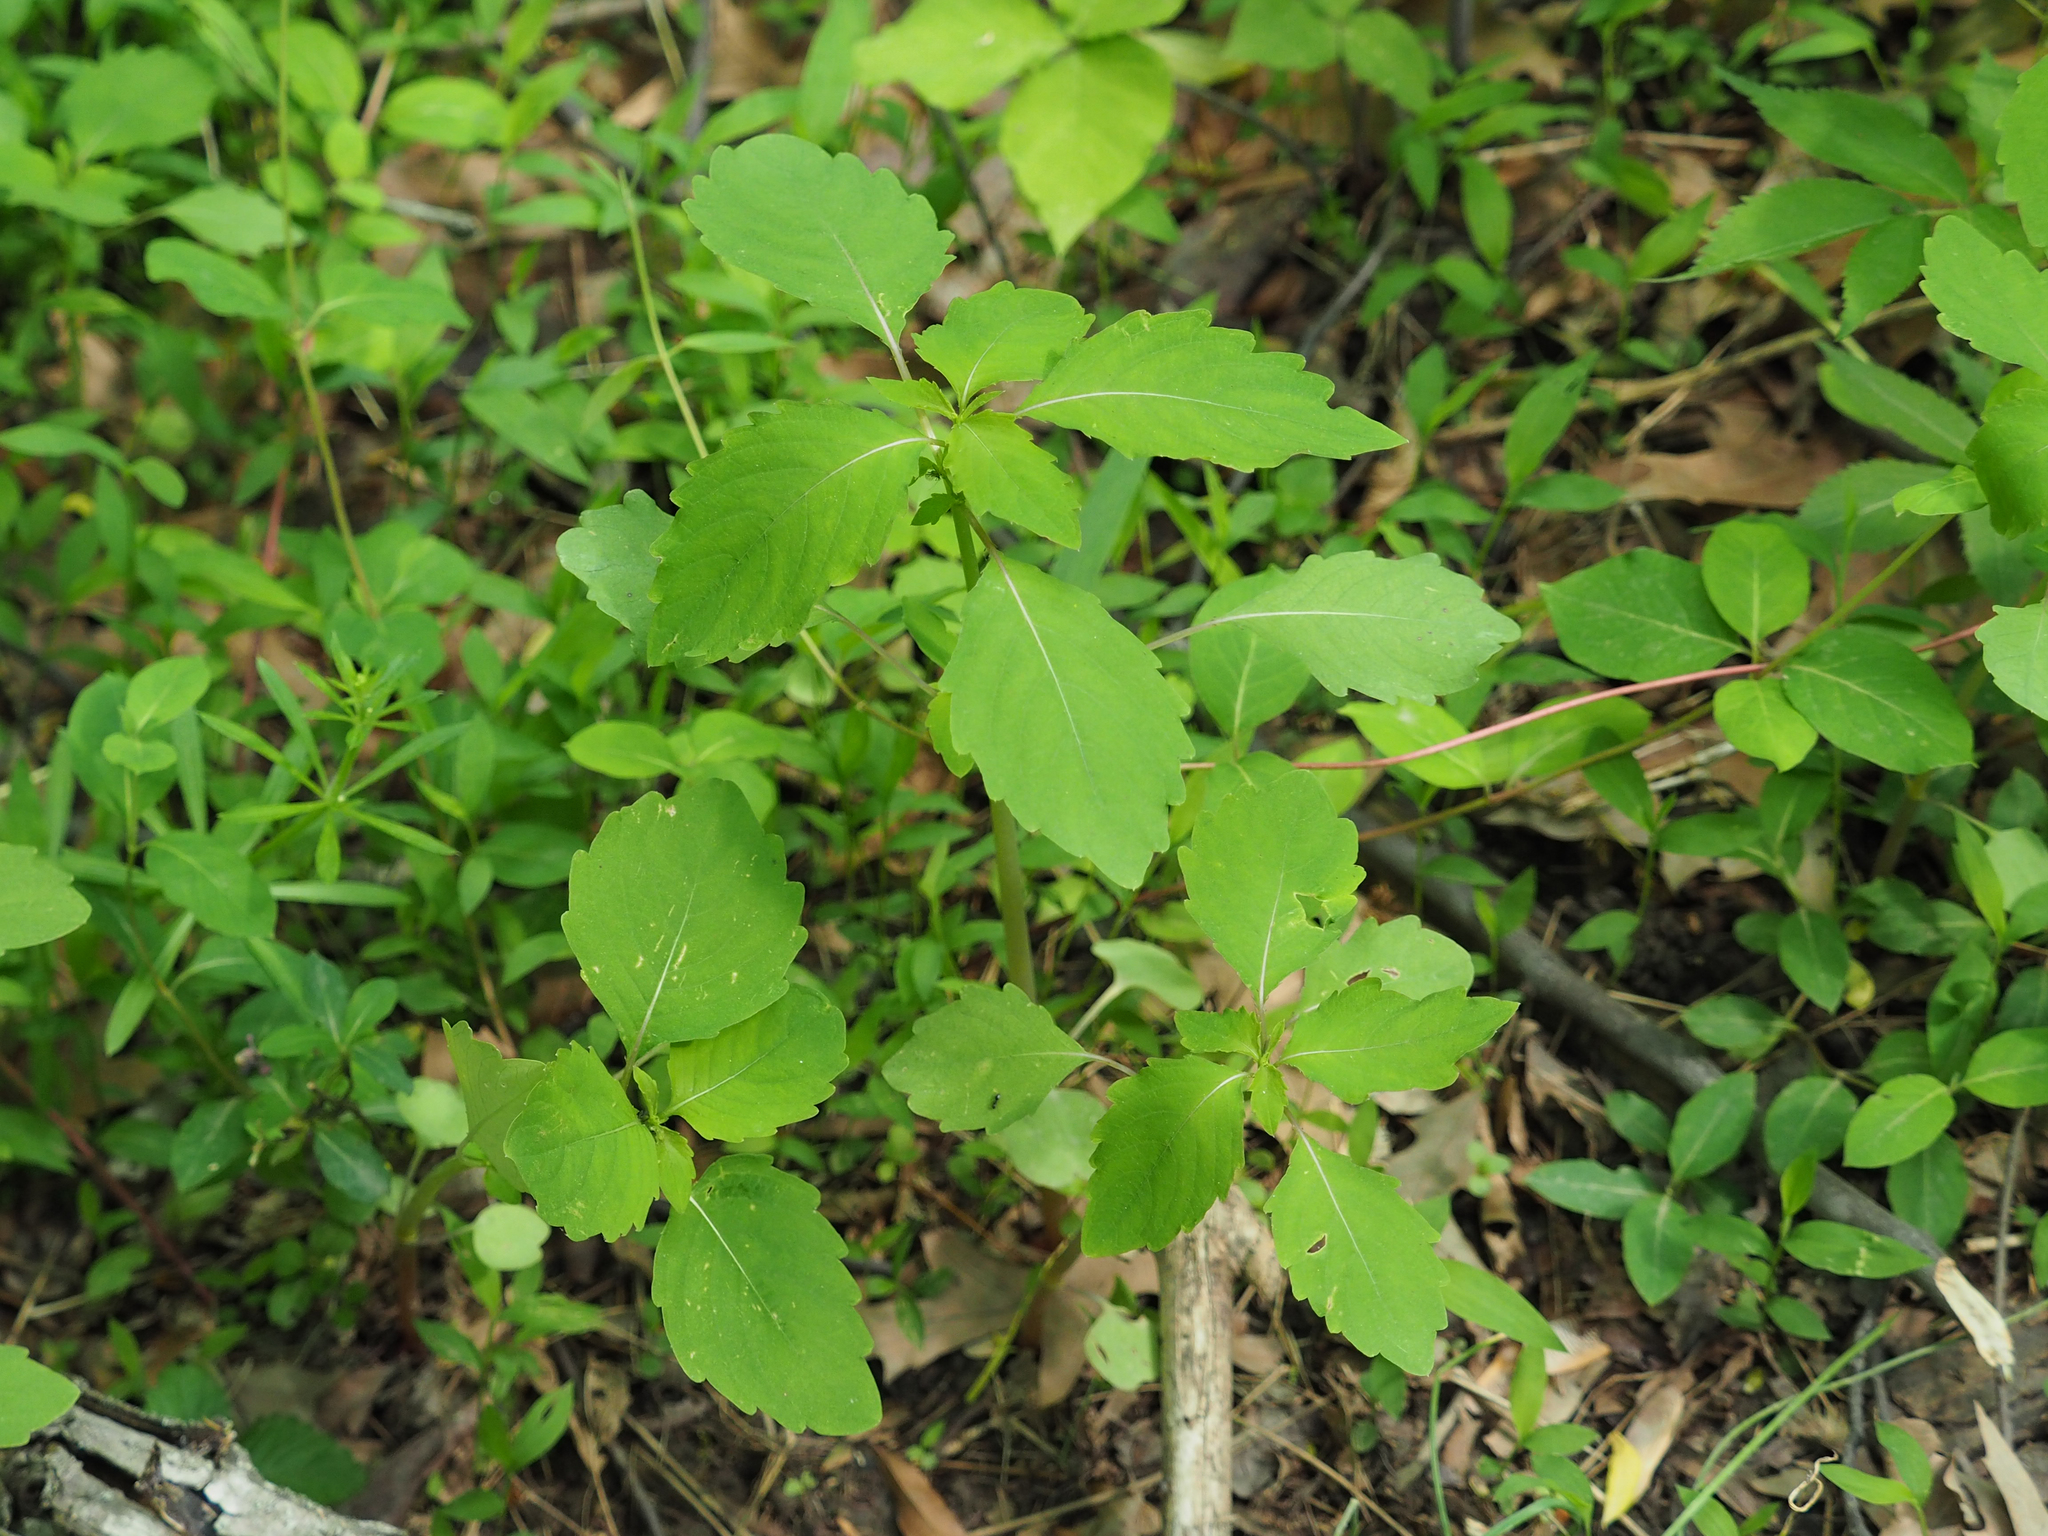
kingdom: Plantae
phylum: Tracheophyta
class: Magnoliopsida
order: Ericales
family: Balsaminaceae
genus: Impatiens
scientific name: Impatiens capensis
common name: Orange balsam
